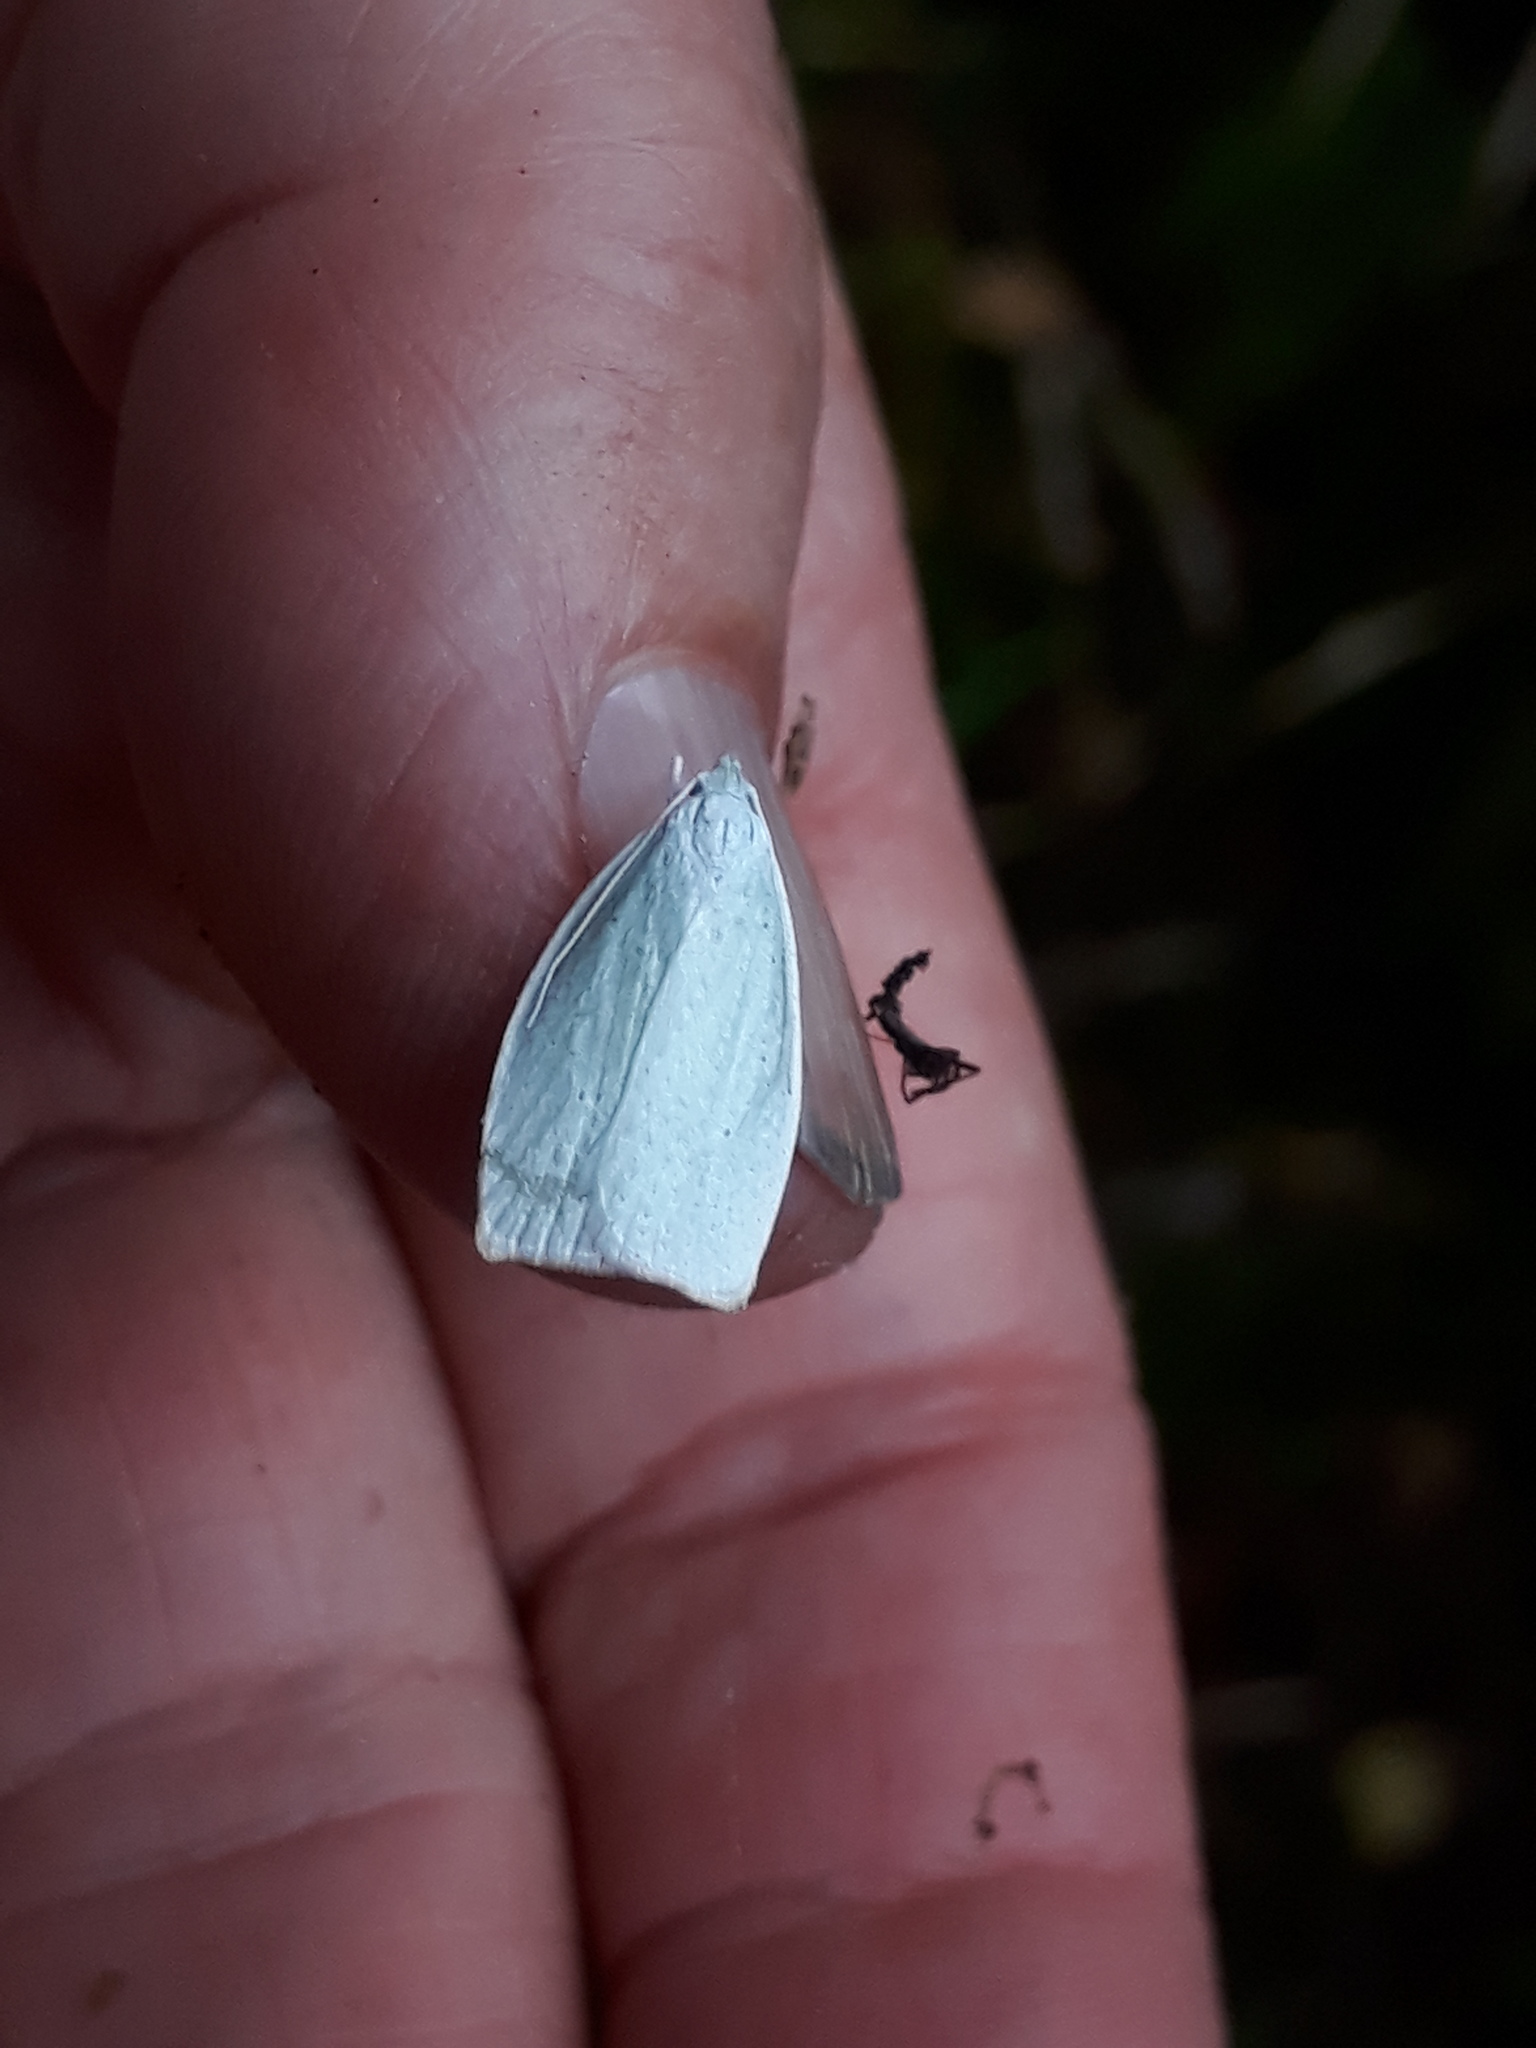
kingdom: Animalia
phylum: Arthropoda
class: Insecta
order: Lepidoptera
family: Oecophoridae
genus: Nymphostola
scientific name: Nymphostola galactina
